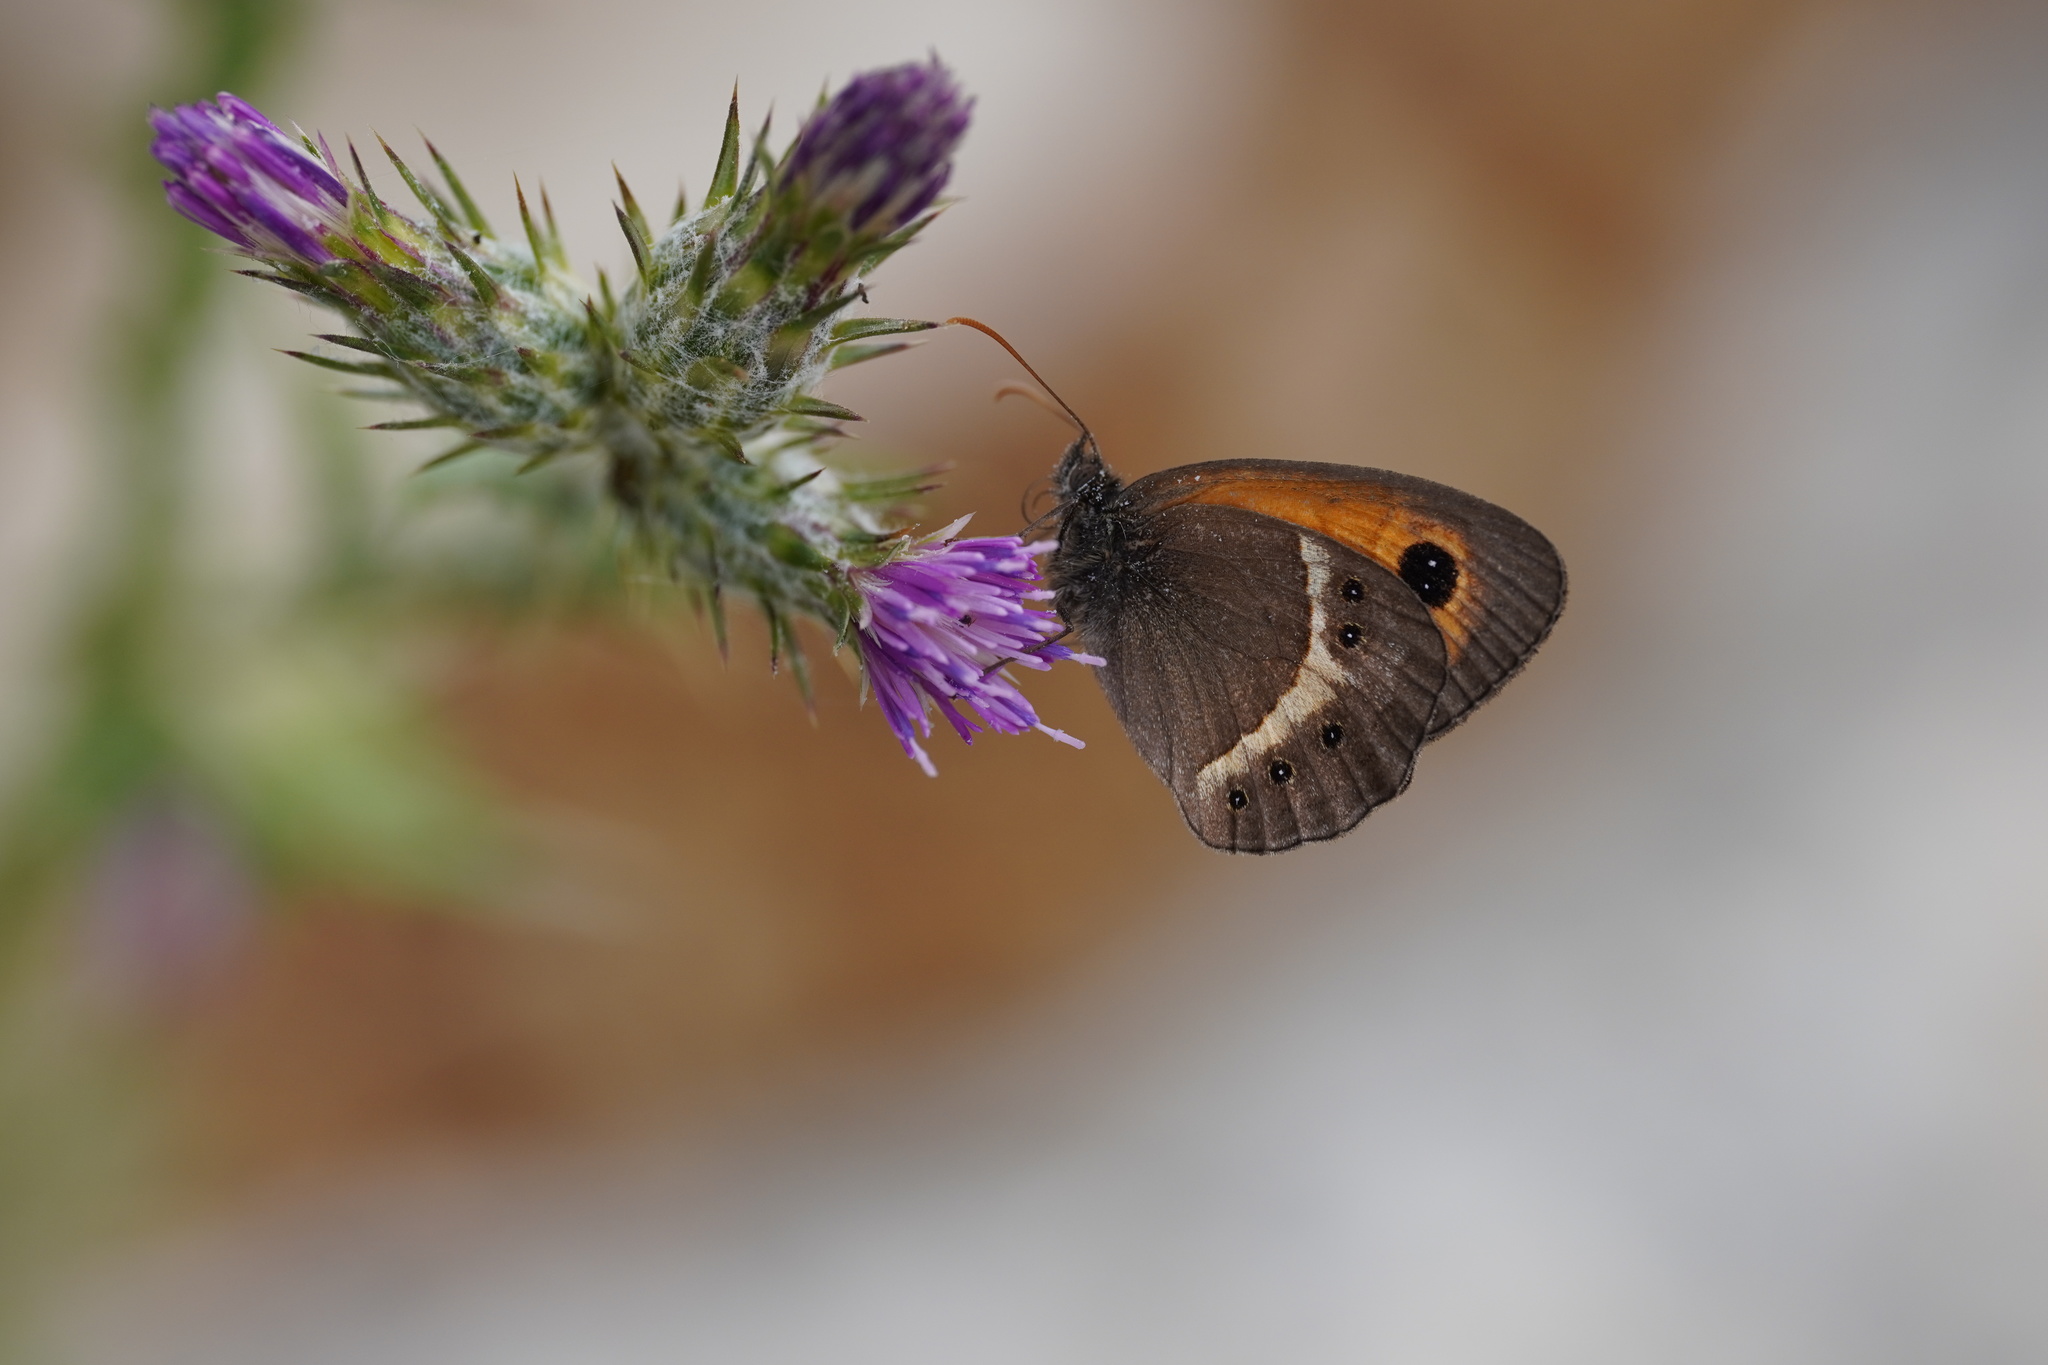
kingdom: Animalia
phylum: Arthropoda
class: Insecta
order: Lepidoptera
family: Nymphalidae
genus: Pyronia
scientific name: Pyronia bathseba
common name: Spanish gatekeeper
